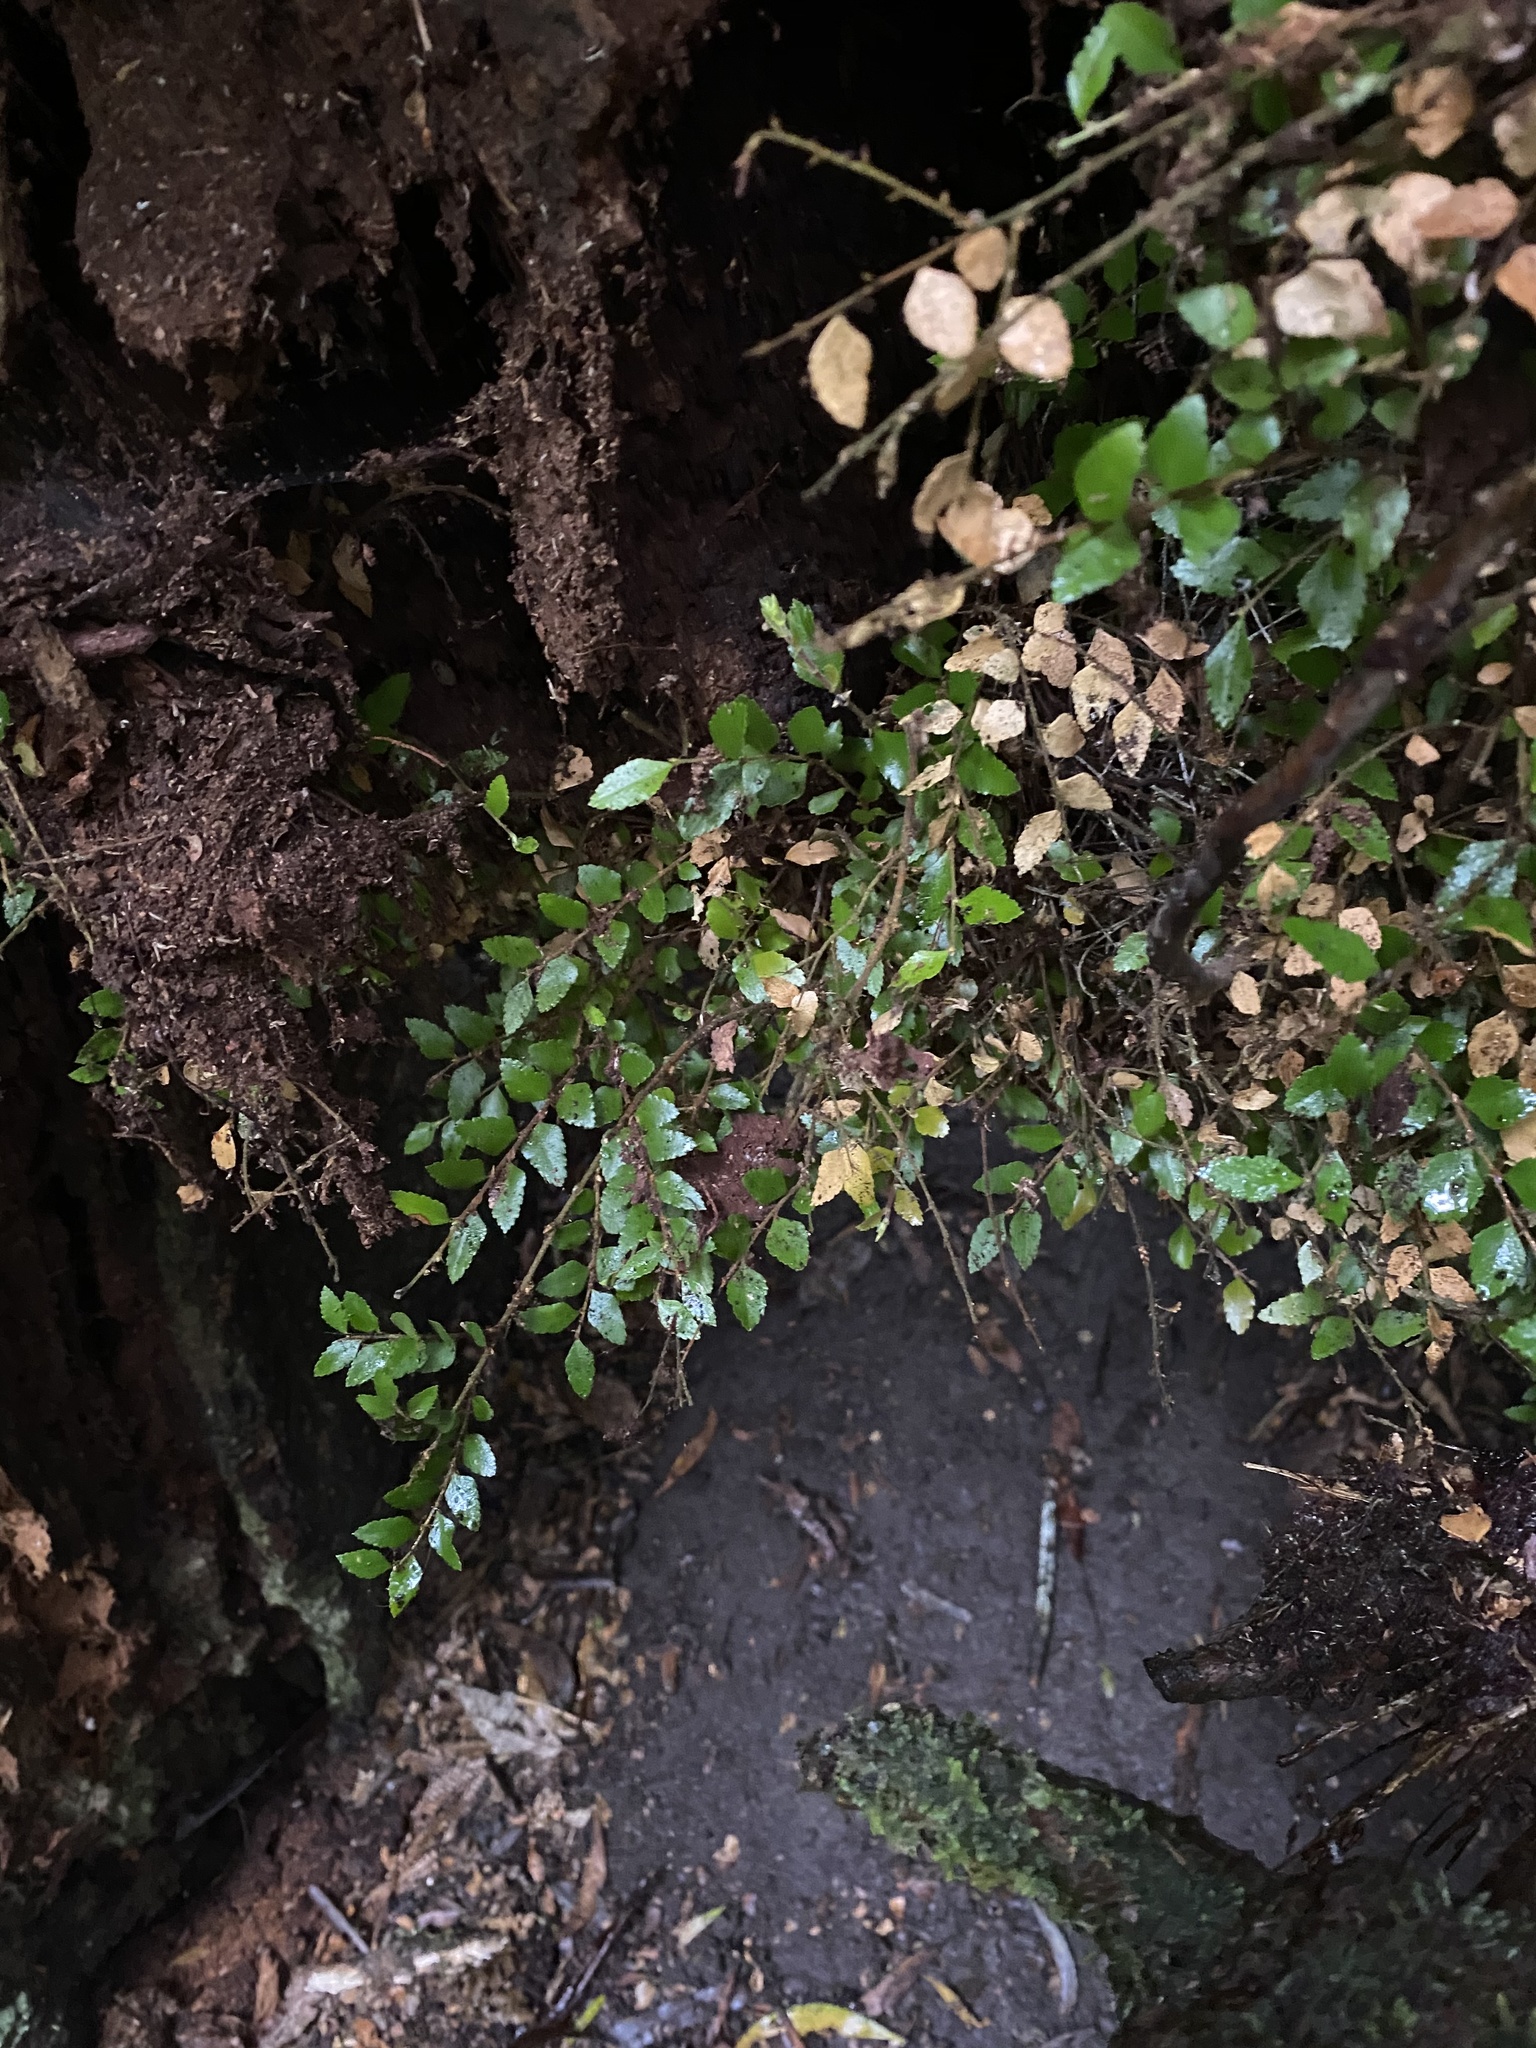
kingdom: Plantae
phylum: Tracheophyta
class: Magnoliopsida
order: Fagales
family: Nothofagaceae
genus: Nothofagus
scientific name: Nothofagus cunninghamii
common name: Myrtle beech
